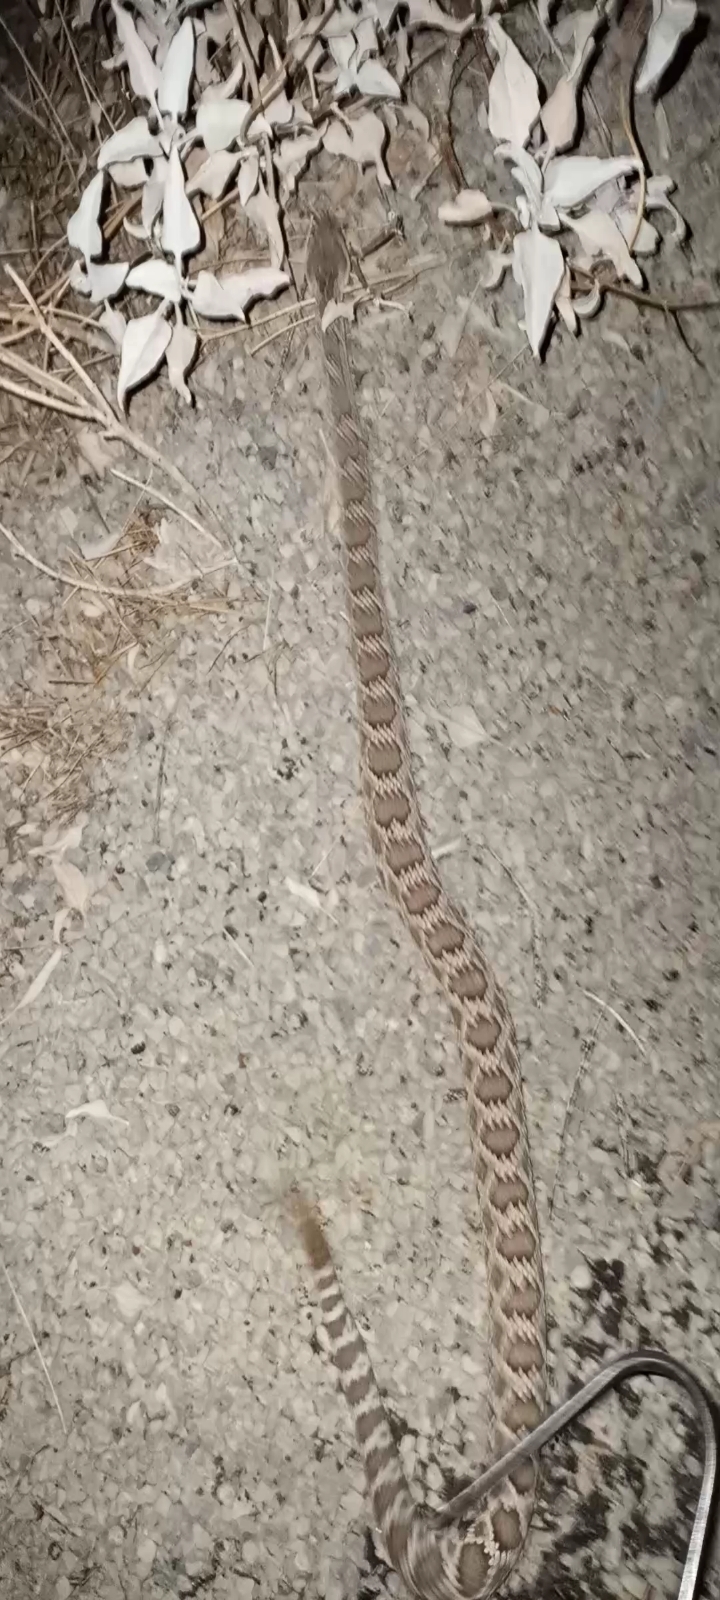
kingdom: Animalia
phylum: Chordata
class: Squamata
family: Viperidae
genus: Crotalus
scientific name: Crotalus oreganus
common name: Abyssus
